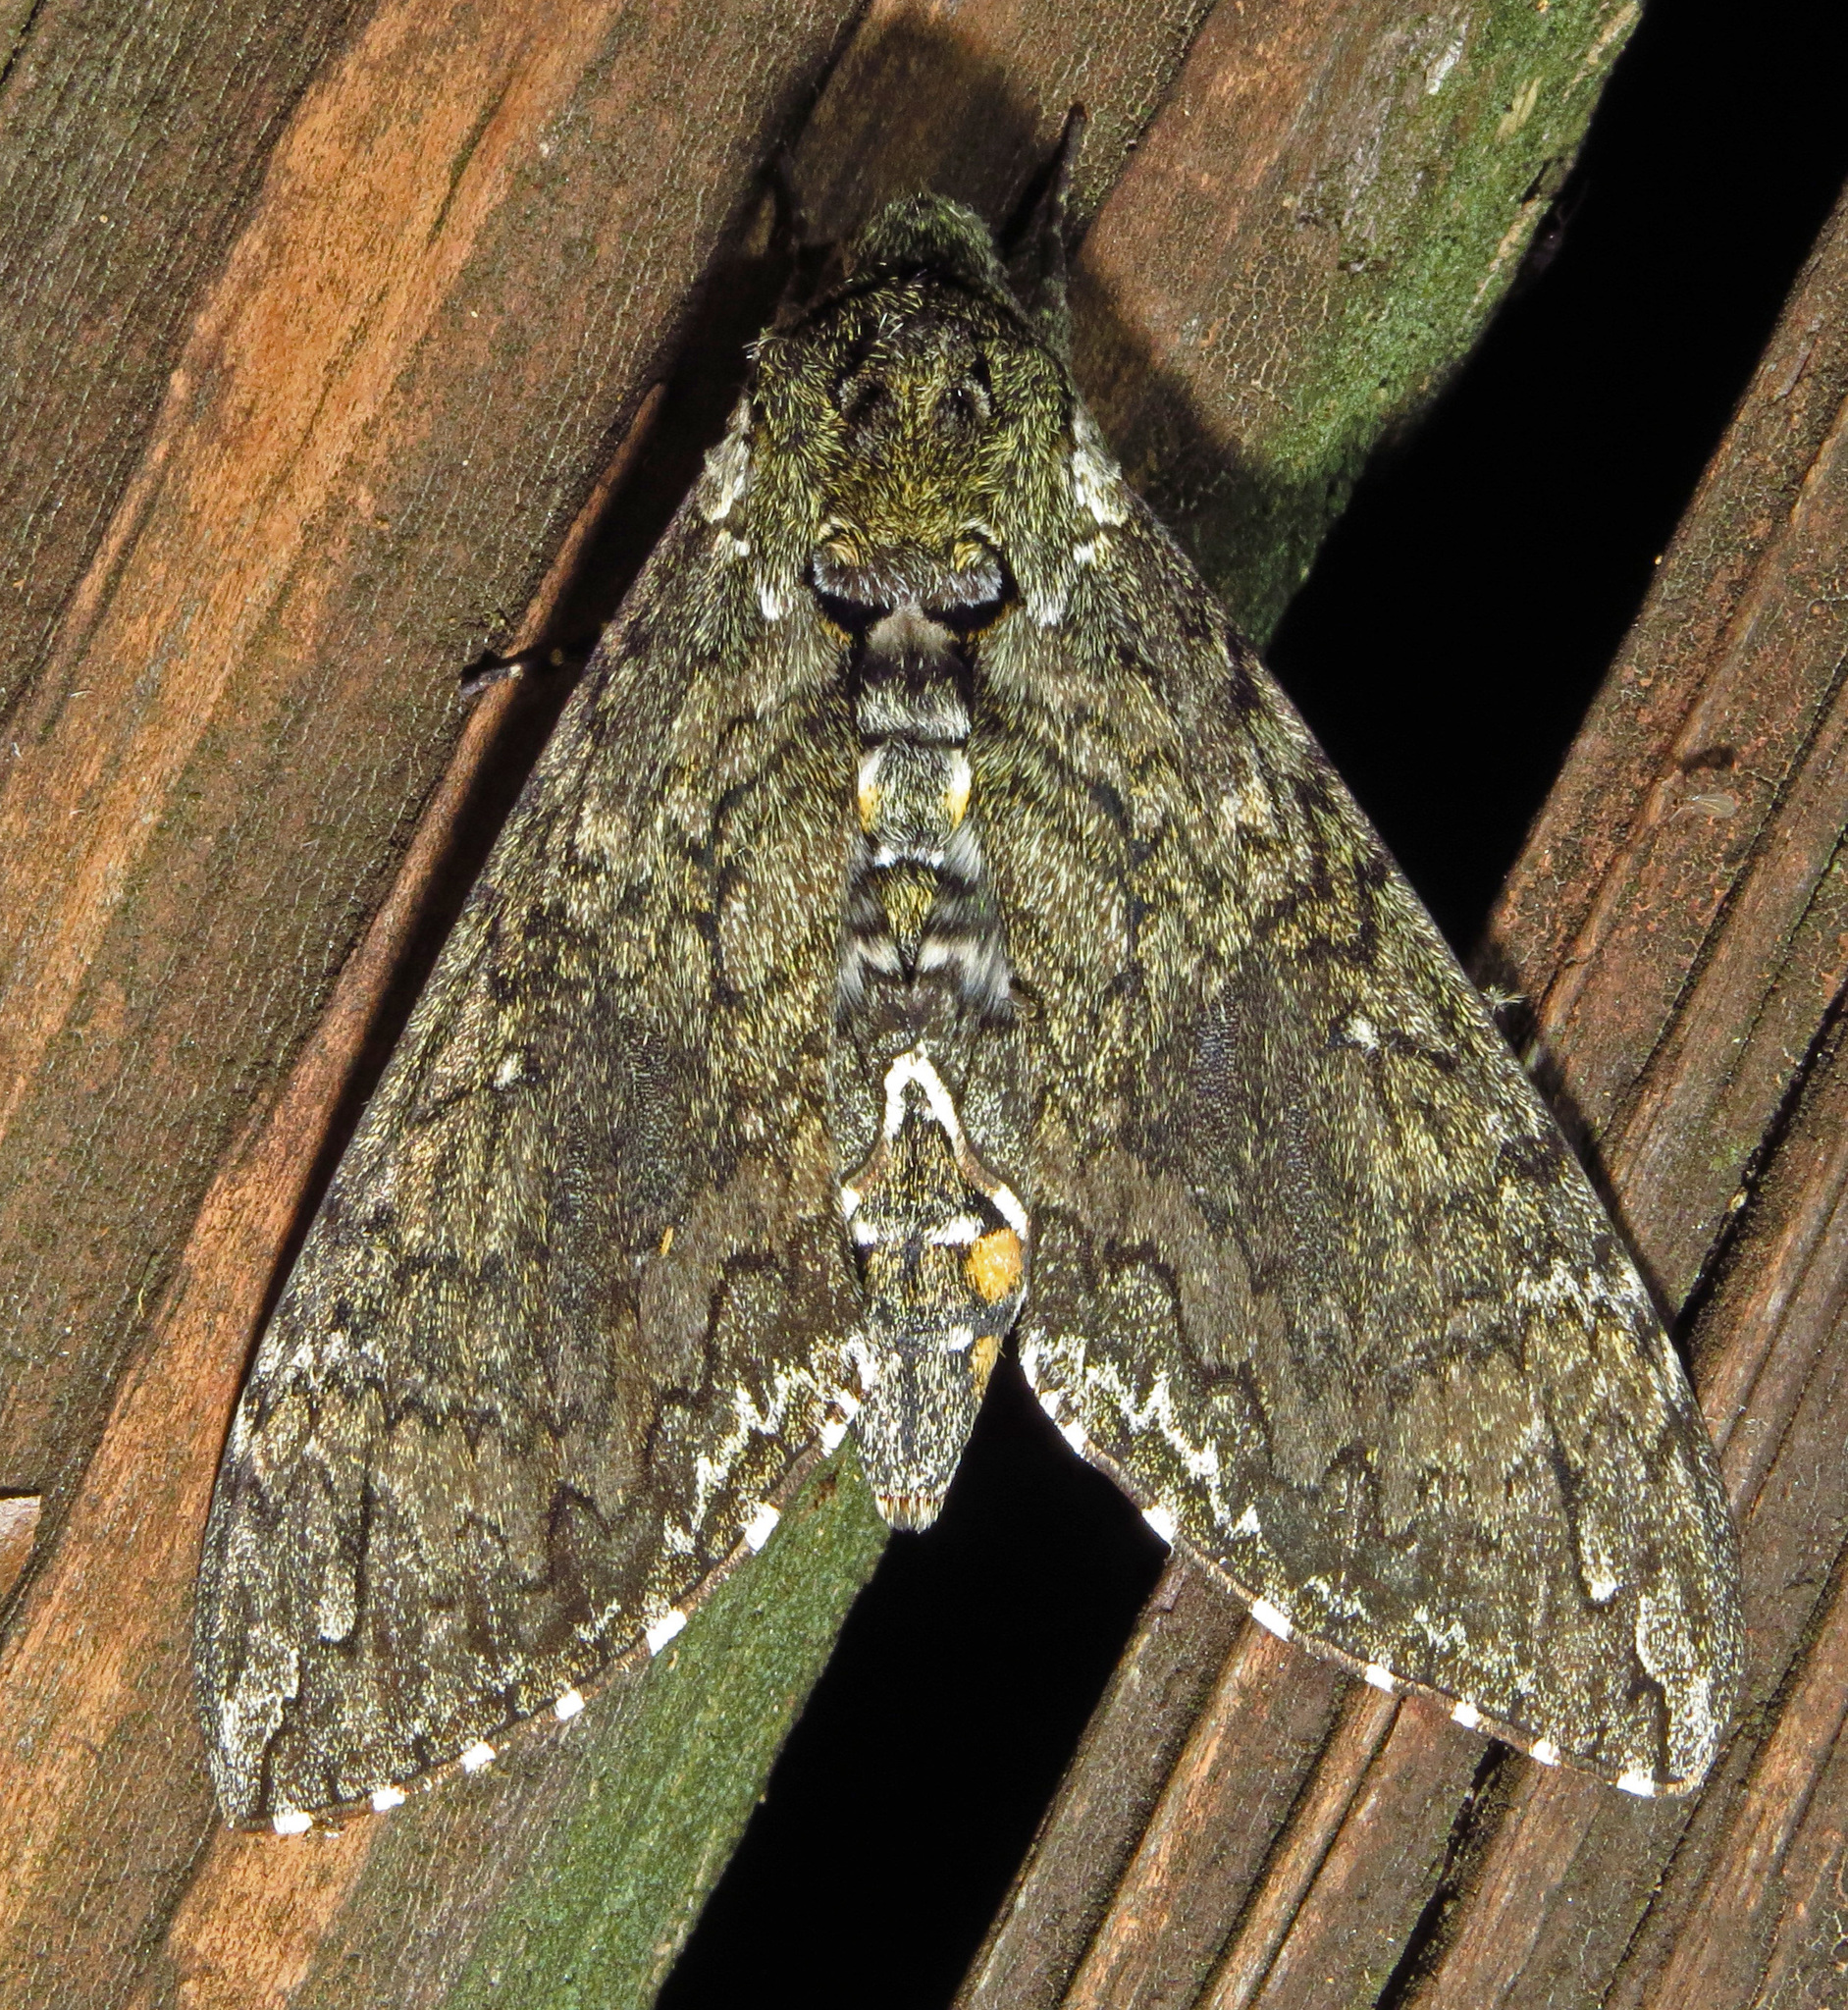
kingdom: Animalia
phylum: Arthropoda
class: Insecta
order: Lepidoptera
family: Sphingidae
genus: Manduca
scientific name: Manduca sexta
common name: Carolina sphinx
